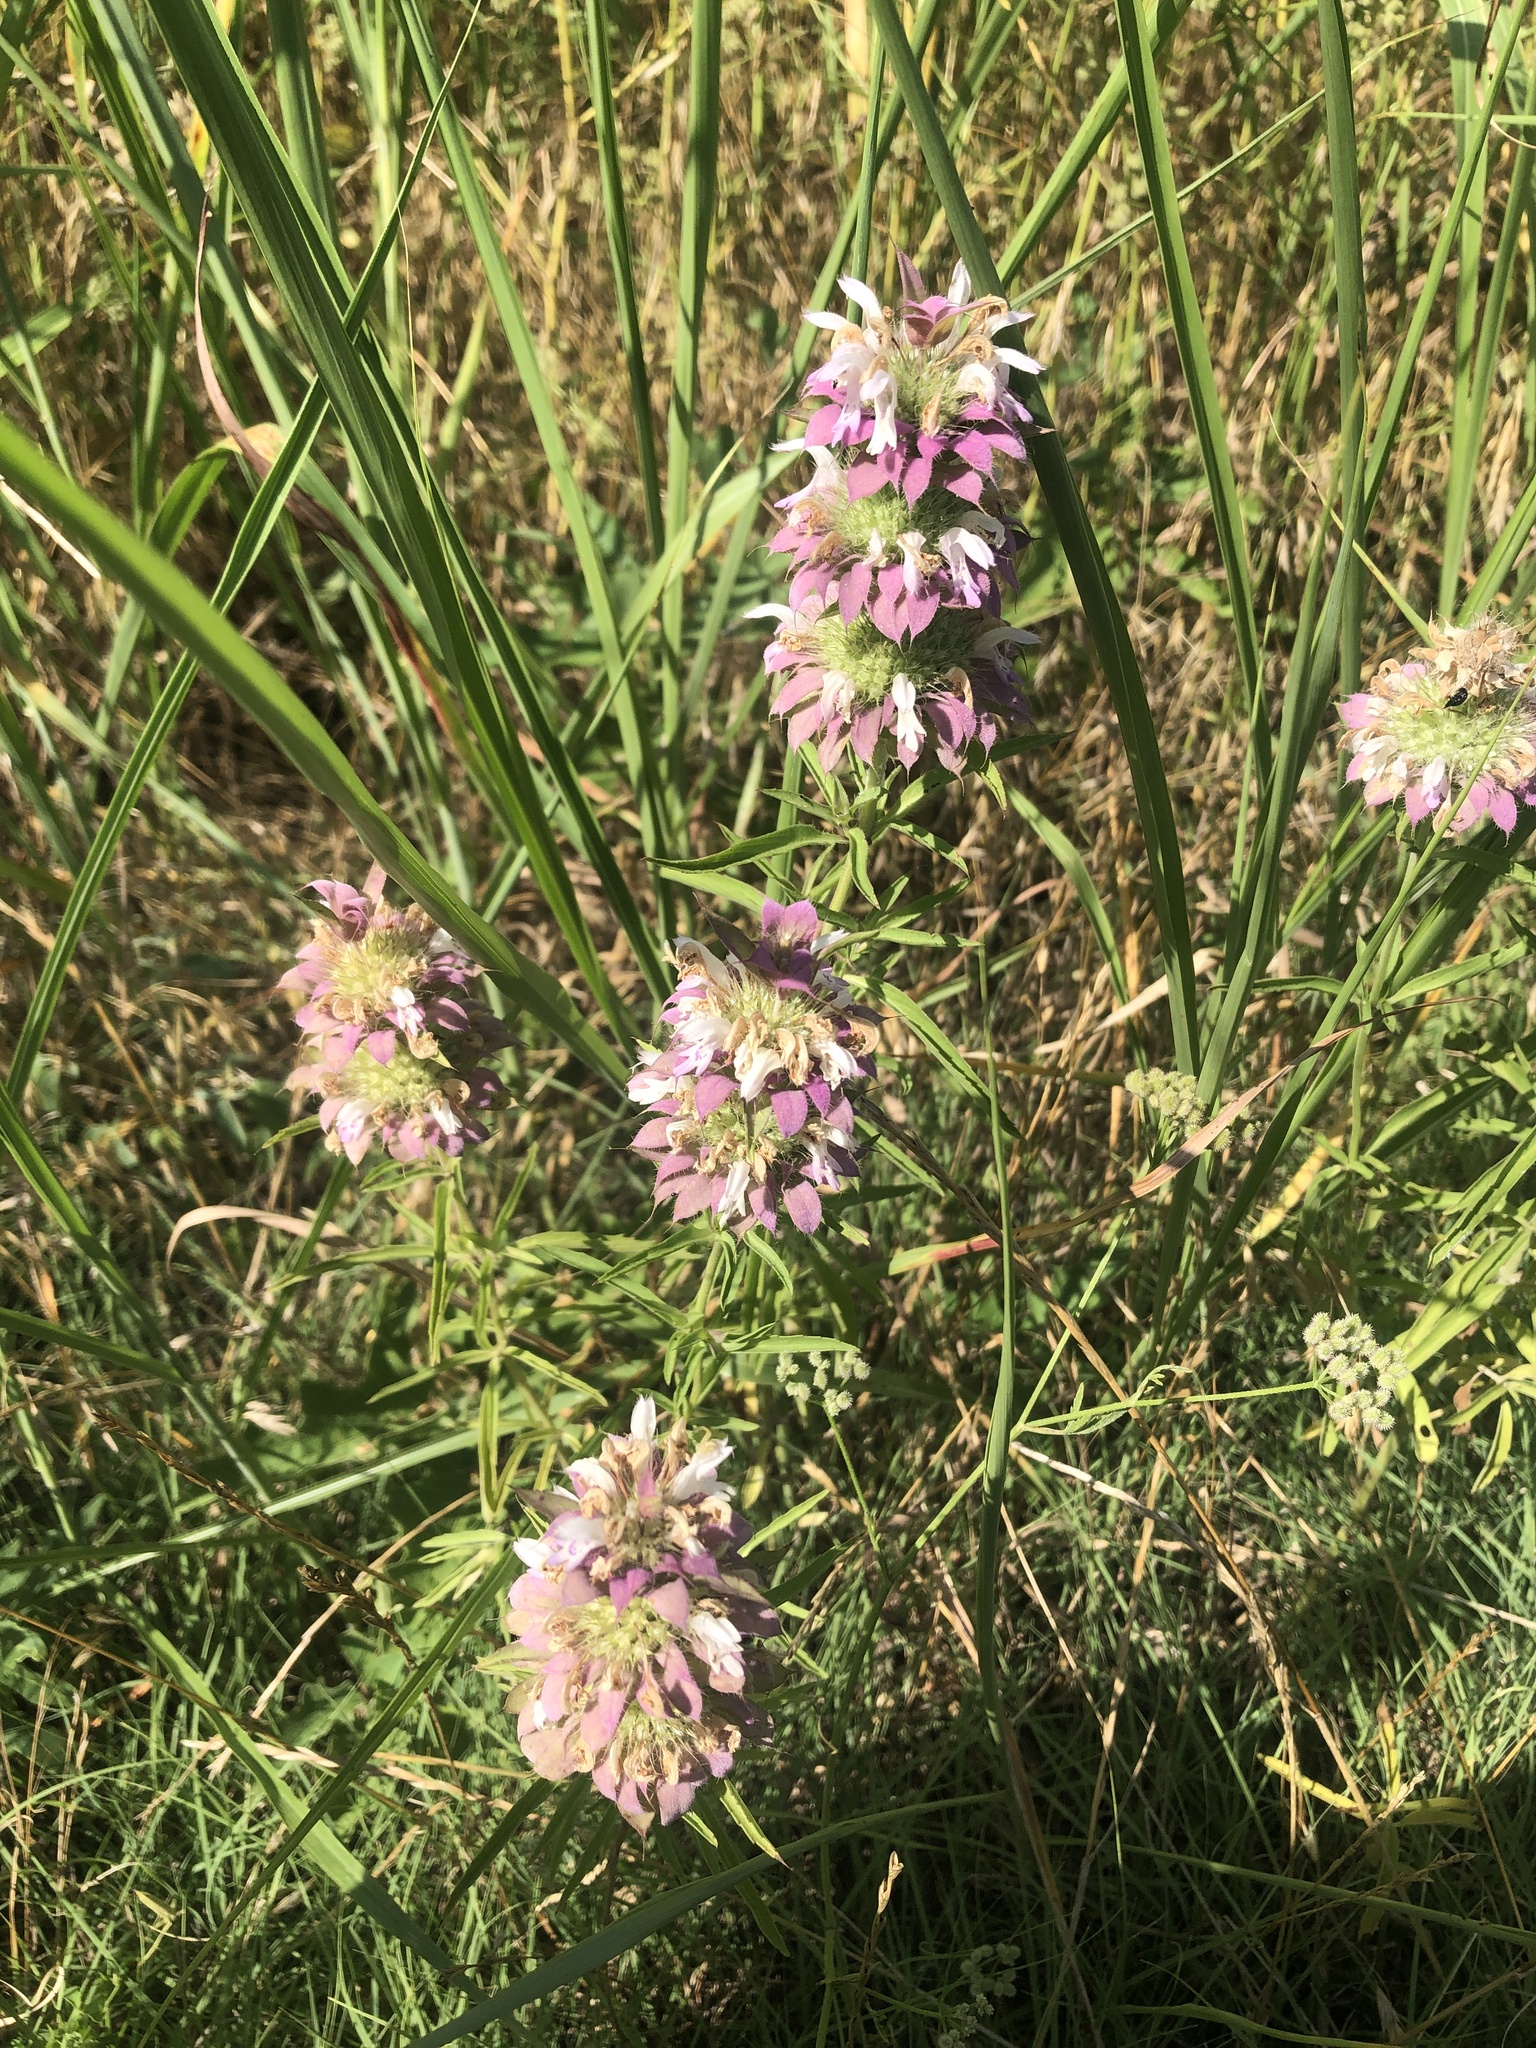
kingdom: Plantae
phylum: Tracheophyta
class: Magnoliopsida
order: Lamiales
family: Lamiaceae
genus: Monarda
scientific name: Monarda citriodora
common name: Lemon beebalm
